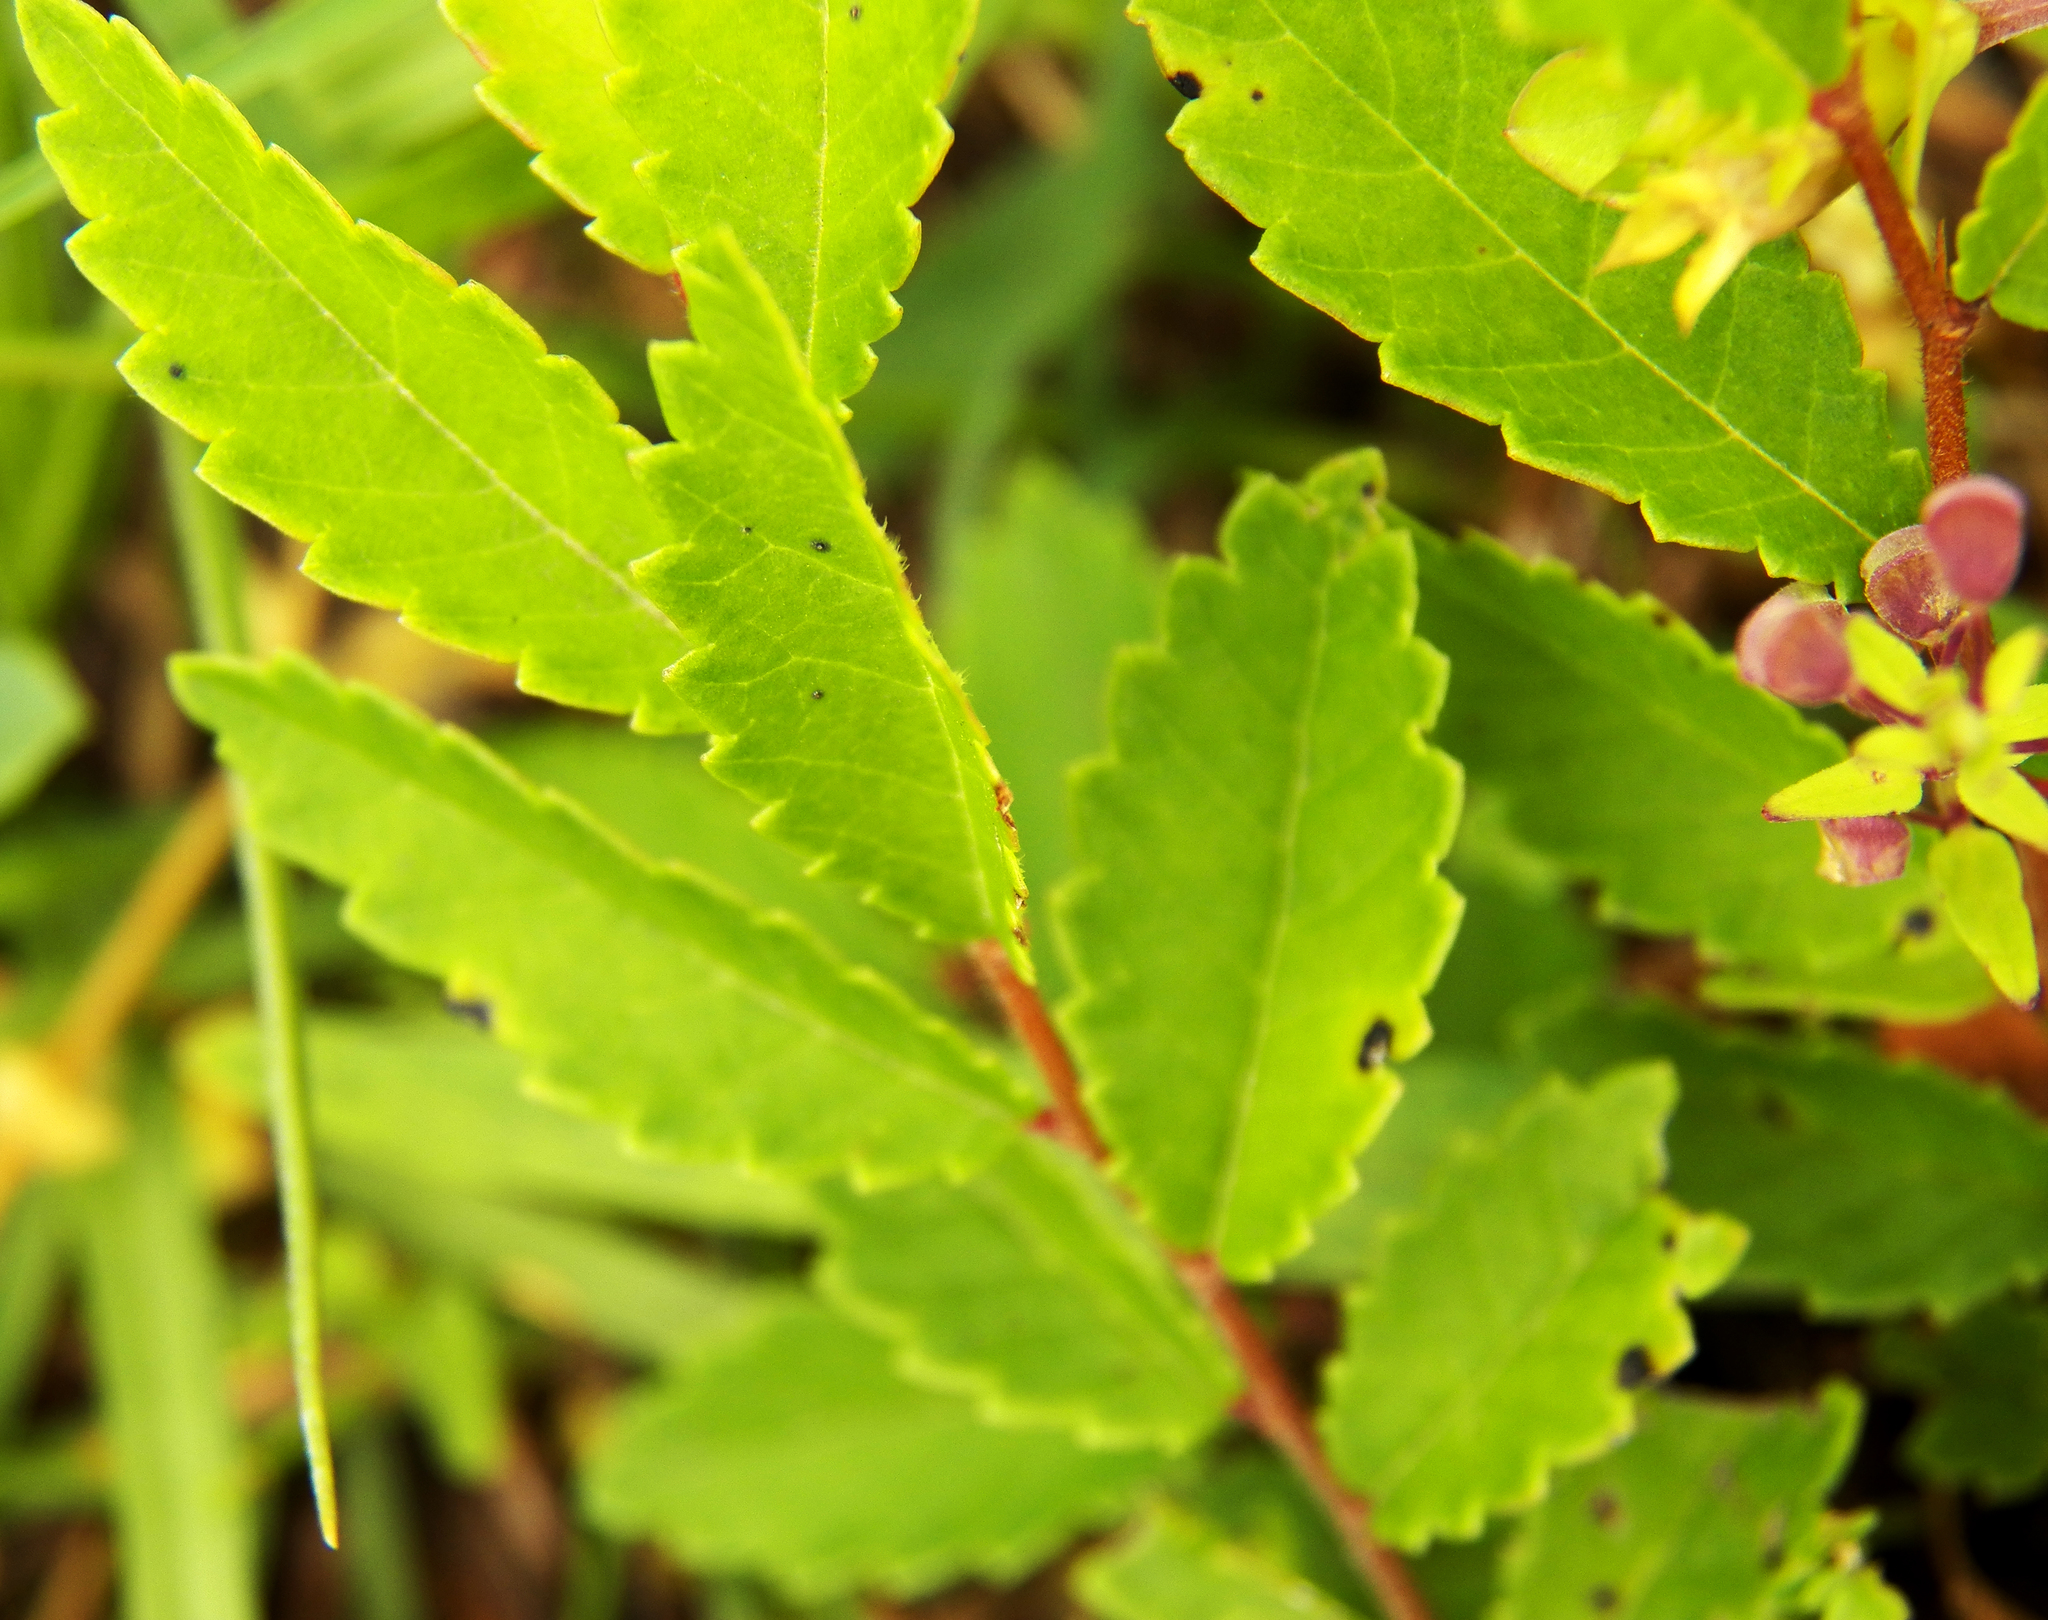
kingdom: Plantae
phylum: Tracheophyta
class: Magnoliopsida
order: Malvales
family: Malvaceae
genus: Melochia
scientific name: Melochia pyramidata
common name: Pyramidflower
